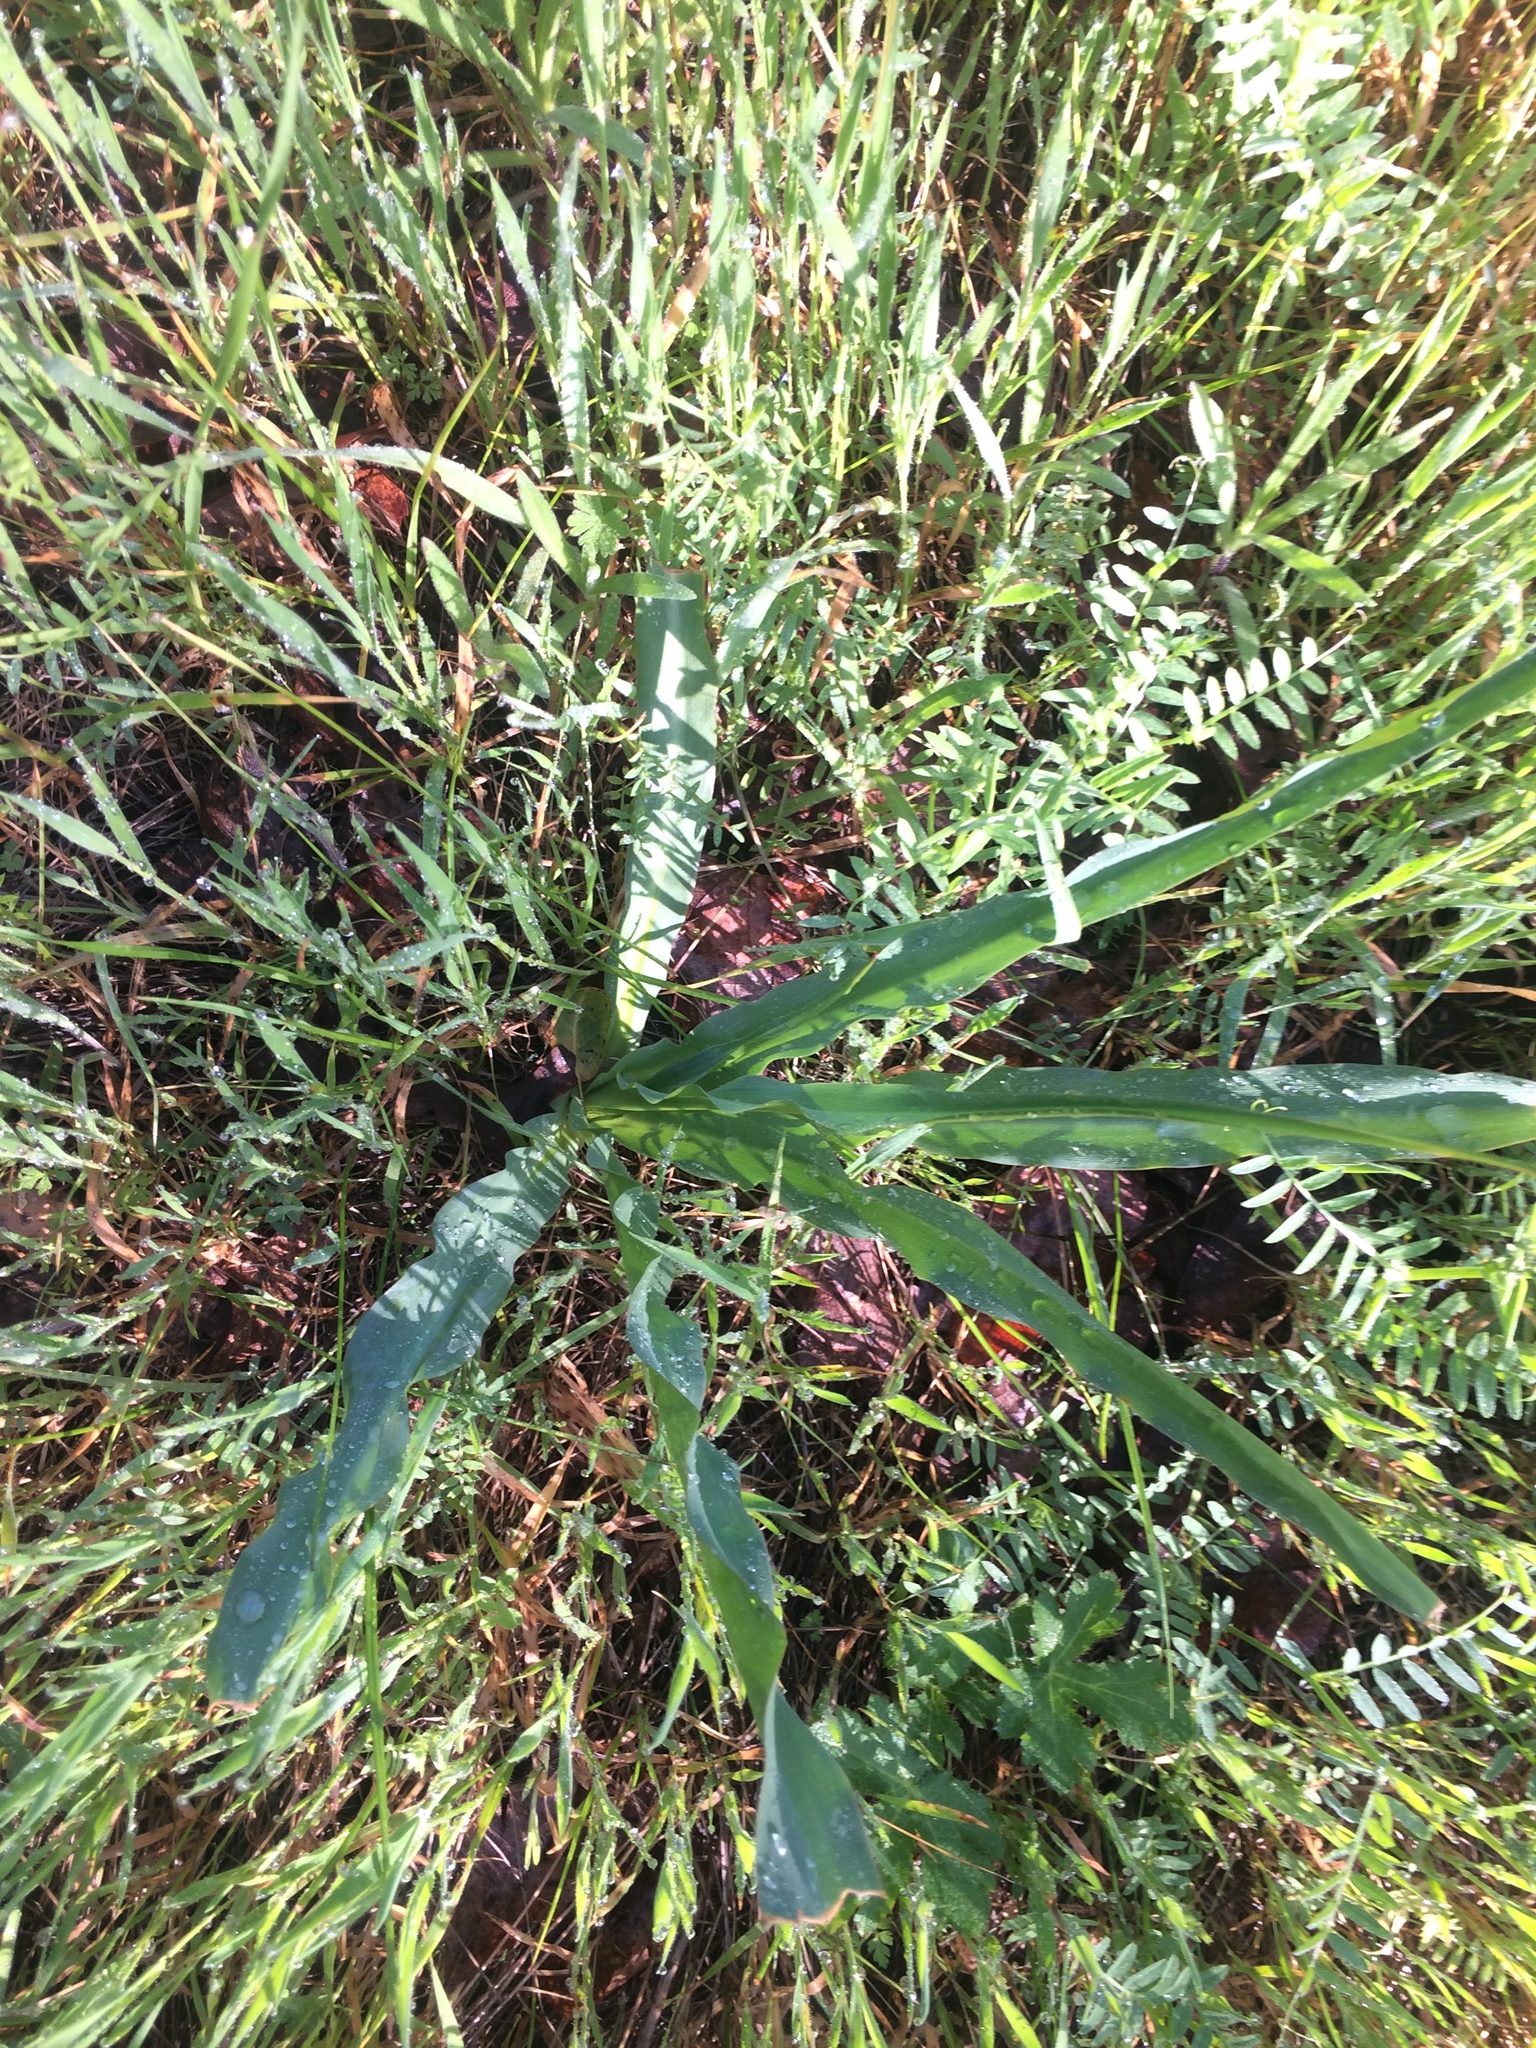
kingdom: Plantae
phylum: Tracheophyta
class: Liliopsida
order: Asparagales
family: Asparagaceae
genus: Chlorogalum
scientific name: Chlorogalum pomeridianum
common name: Amole
